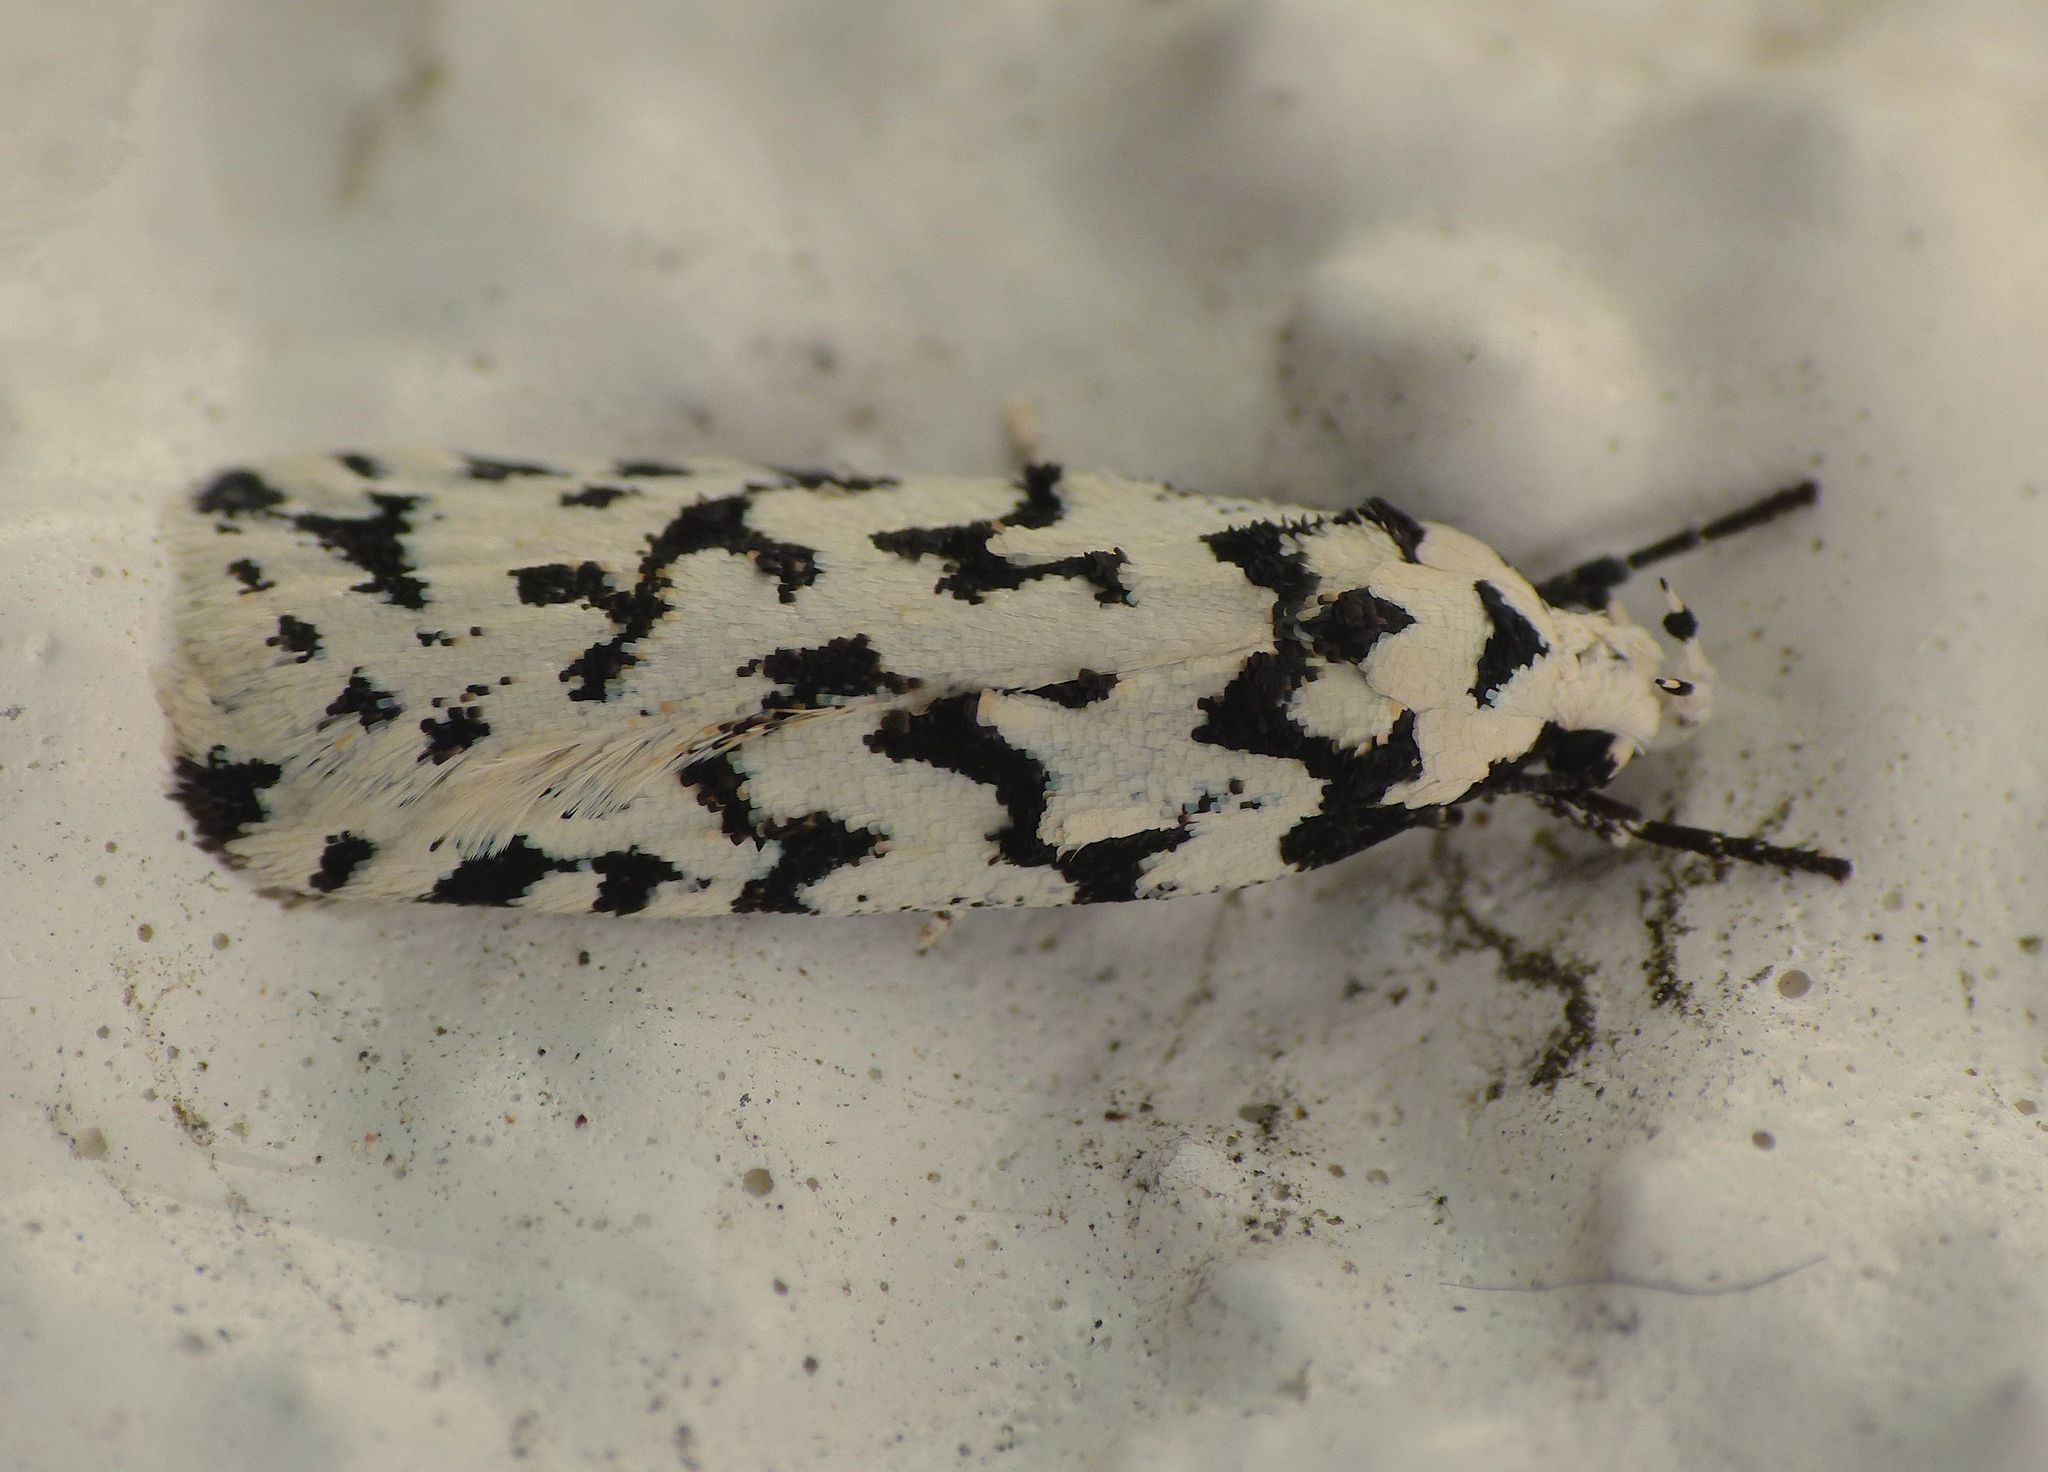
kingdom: Animalia
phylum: Arthropoda
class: Insecta
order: Lepidoptera
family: Oecophoridae
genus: Izatha
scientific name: Izatha katadiktya
